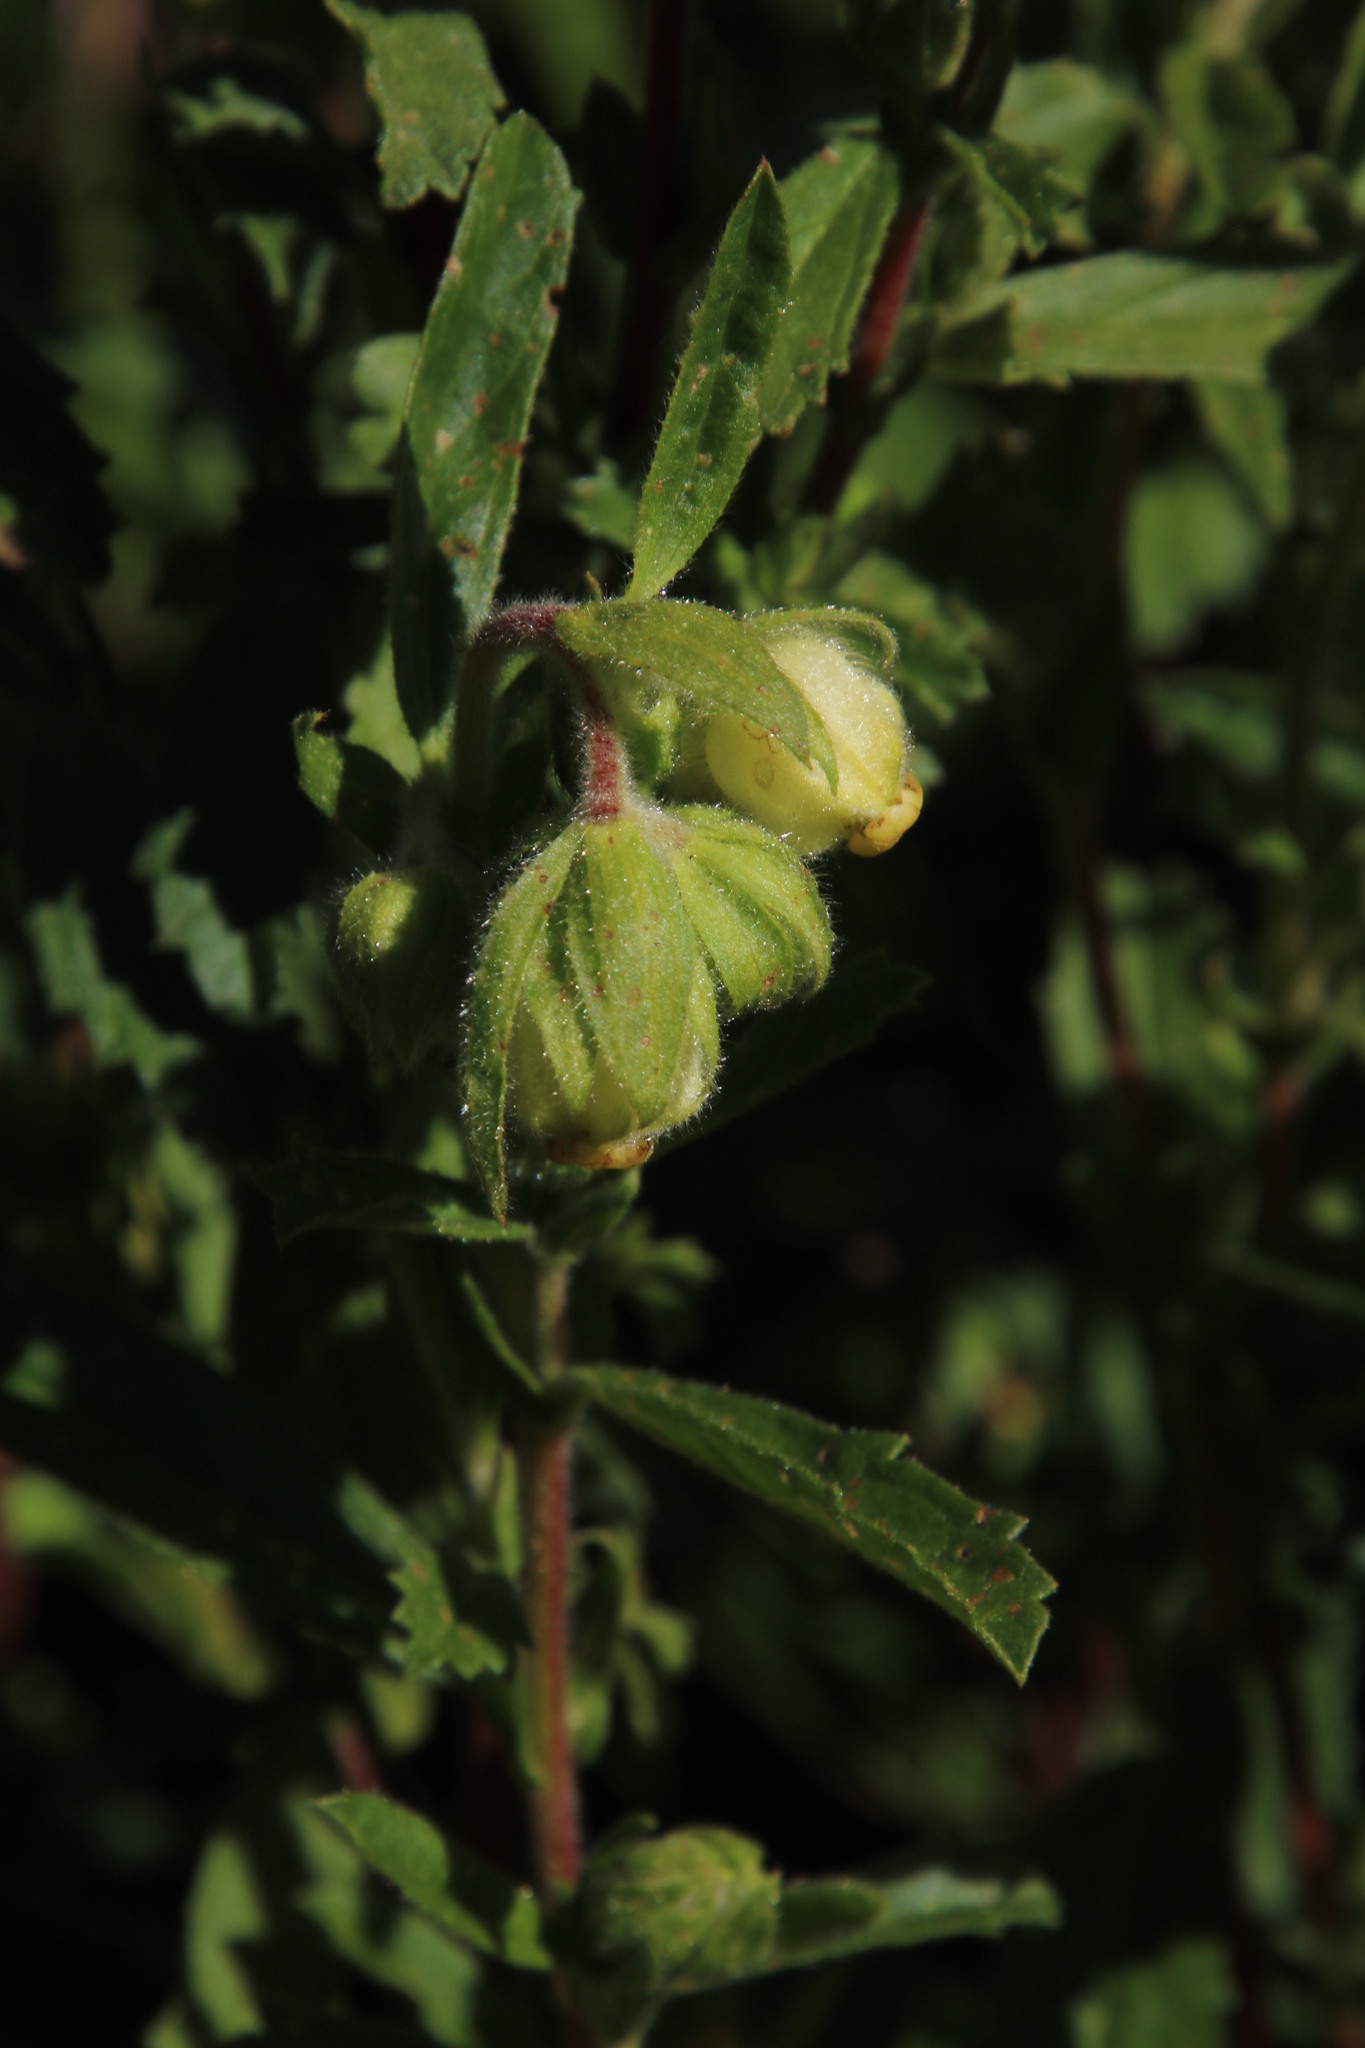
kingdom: Plantae
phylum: Tracheophyta
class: Magnoliopsida
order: Malvales
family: Malvaceae
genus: Hermannia
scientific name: Hermannia hyssopifolia
